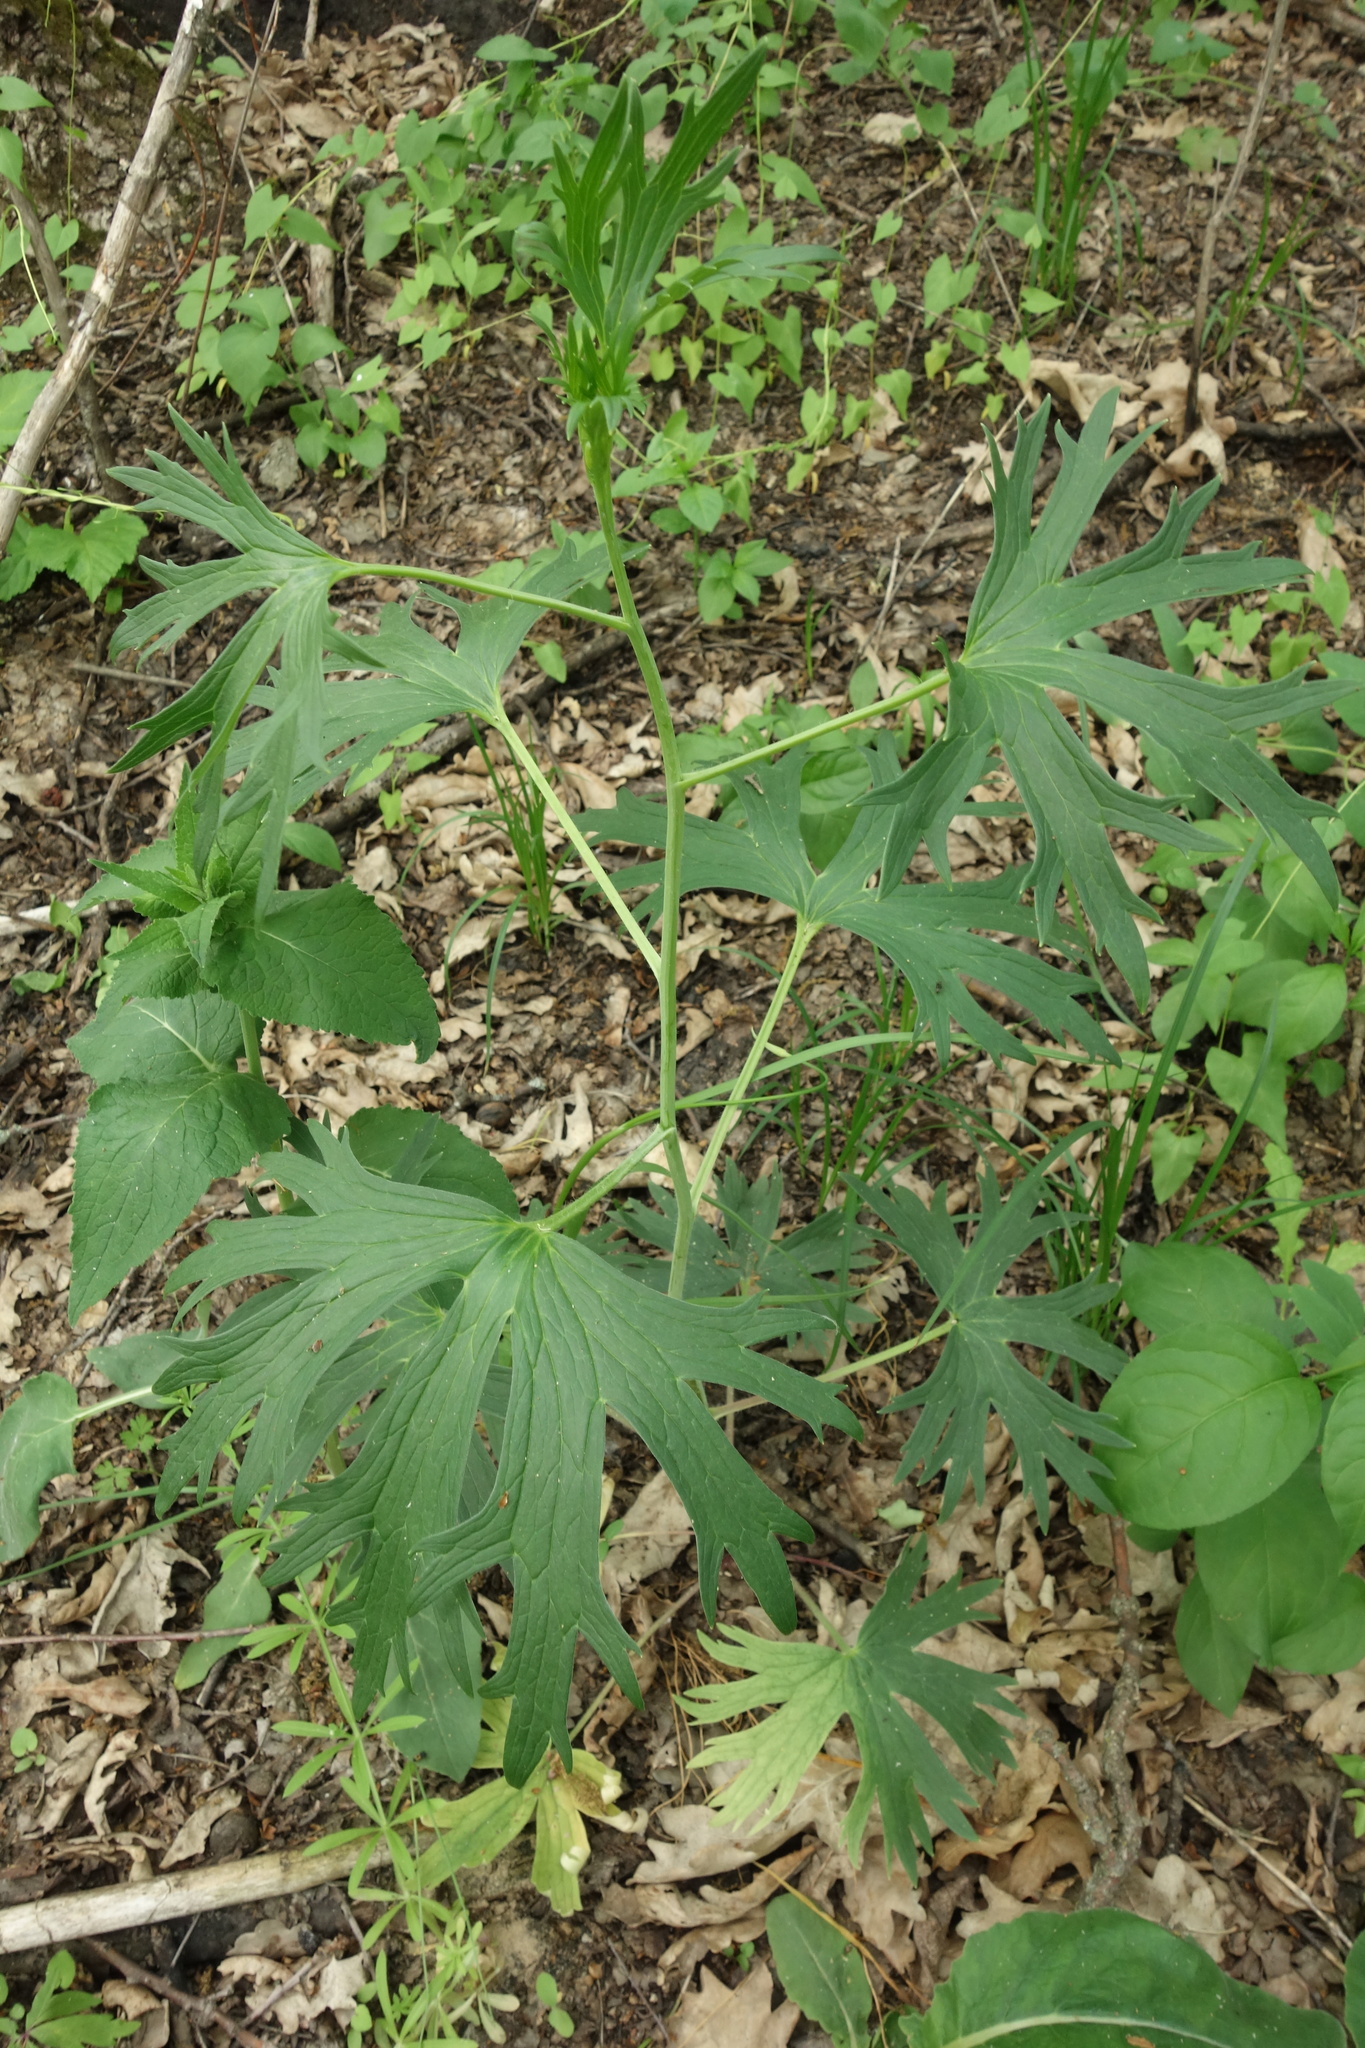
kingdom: Plantae
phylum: Tracheophyta
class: Magnoliopsida
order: Ranunculales
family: Ranunculaceae
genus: Delphinium
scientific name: Delphinium cuneatum
